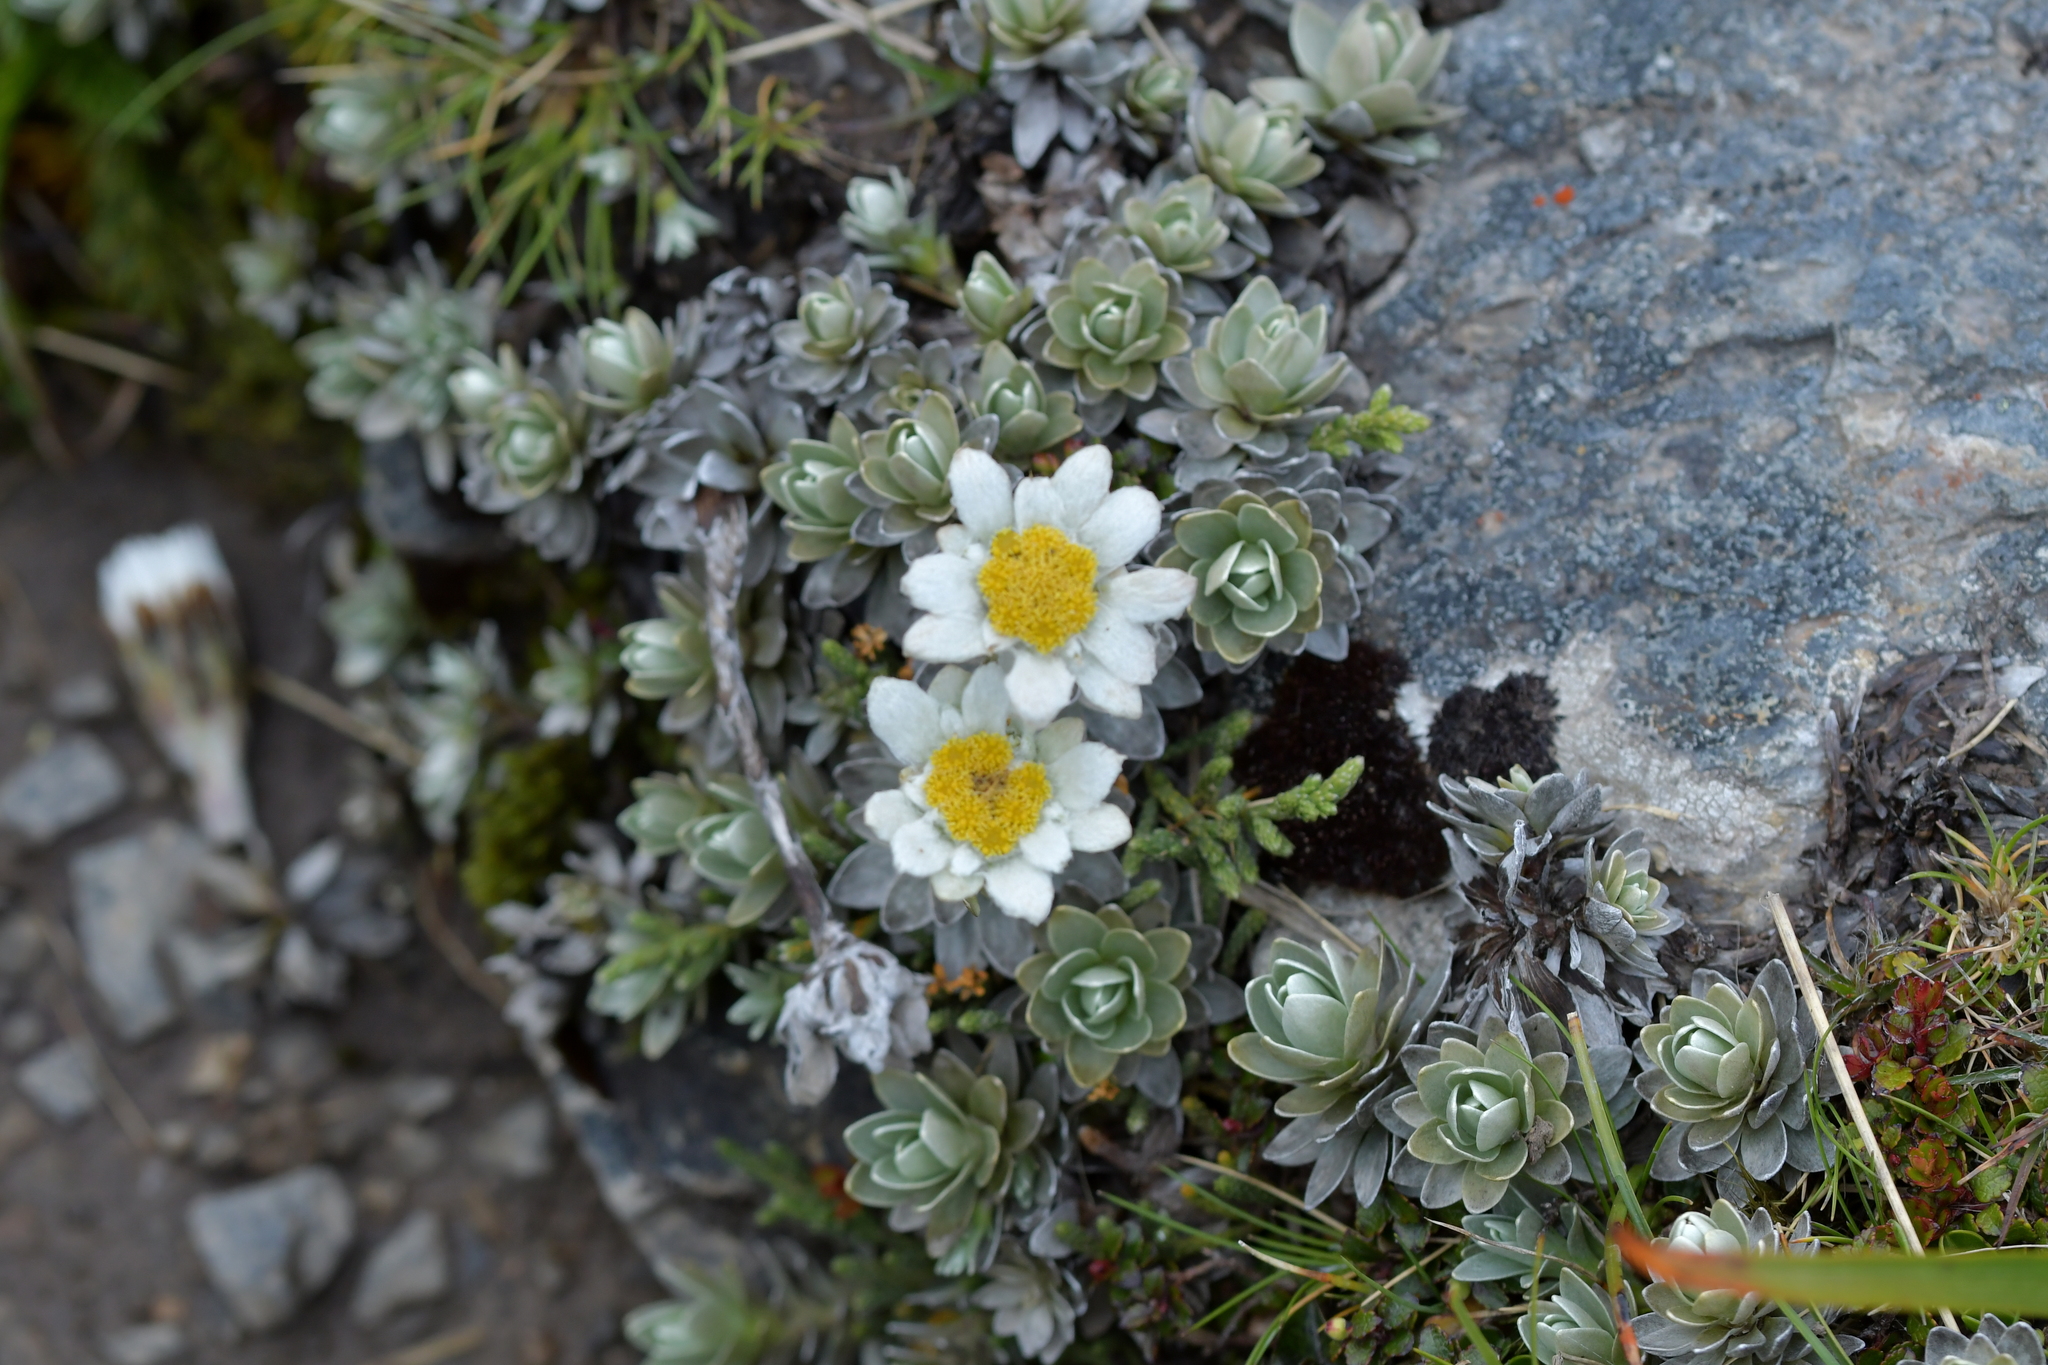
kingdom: Plantae
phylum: Tracheophyta
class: Magnoliopsida
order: Asterales
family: Asteraceae
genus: Leucogenes
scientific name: Leucogenes leontopodium
